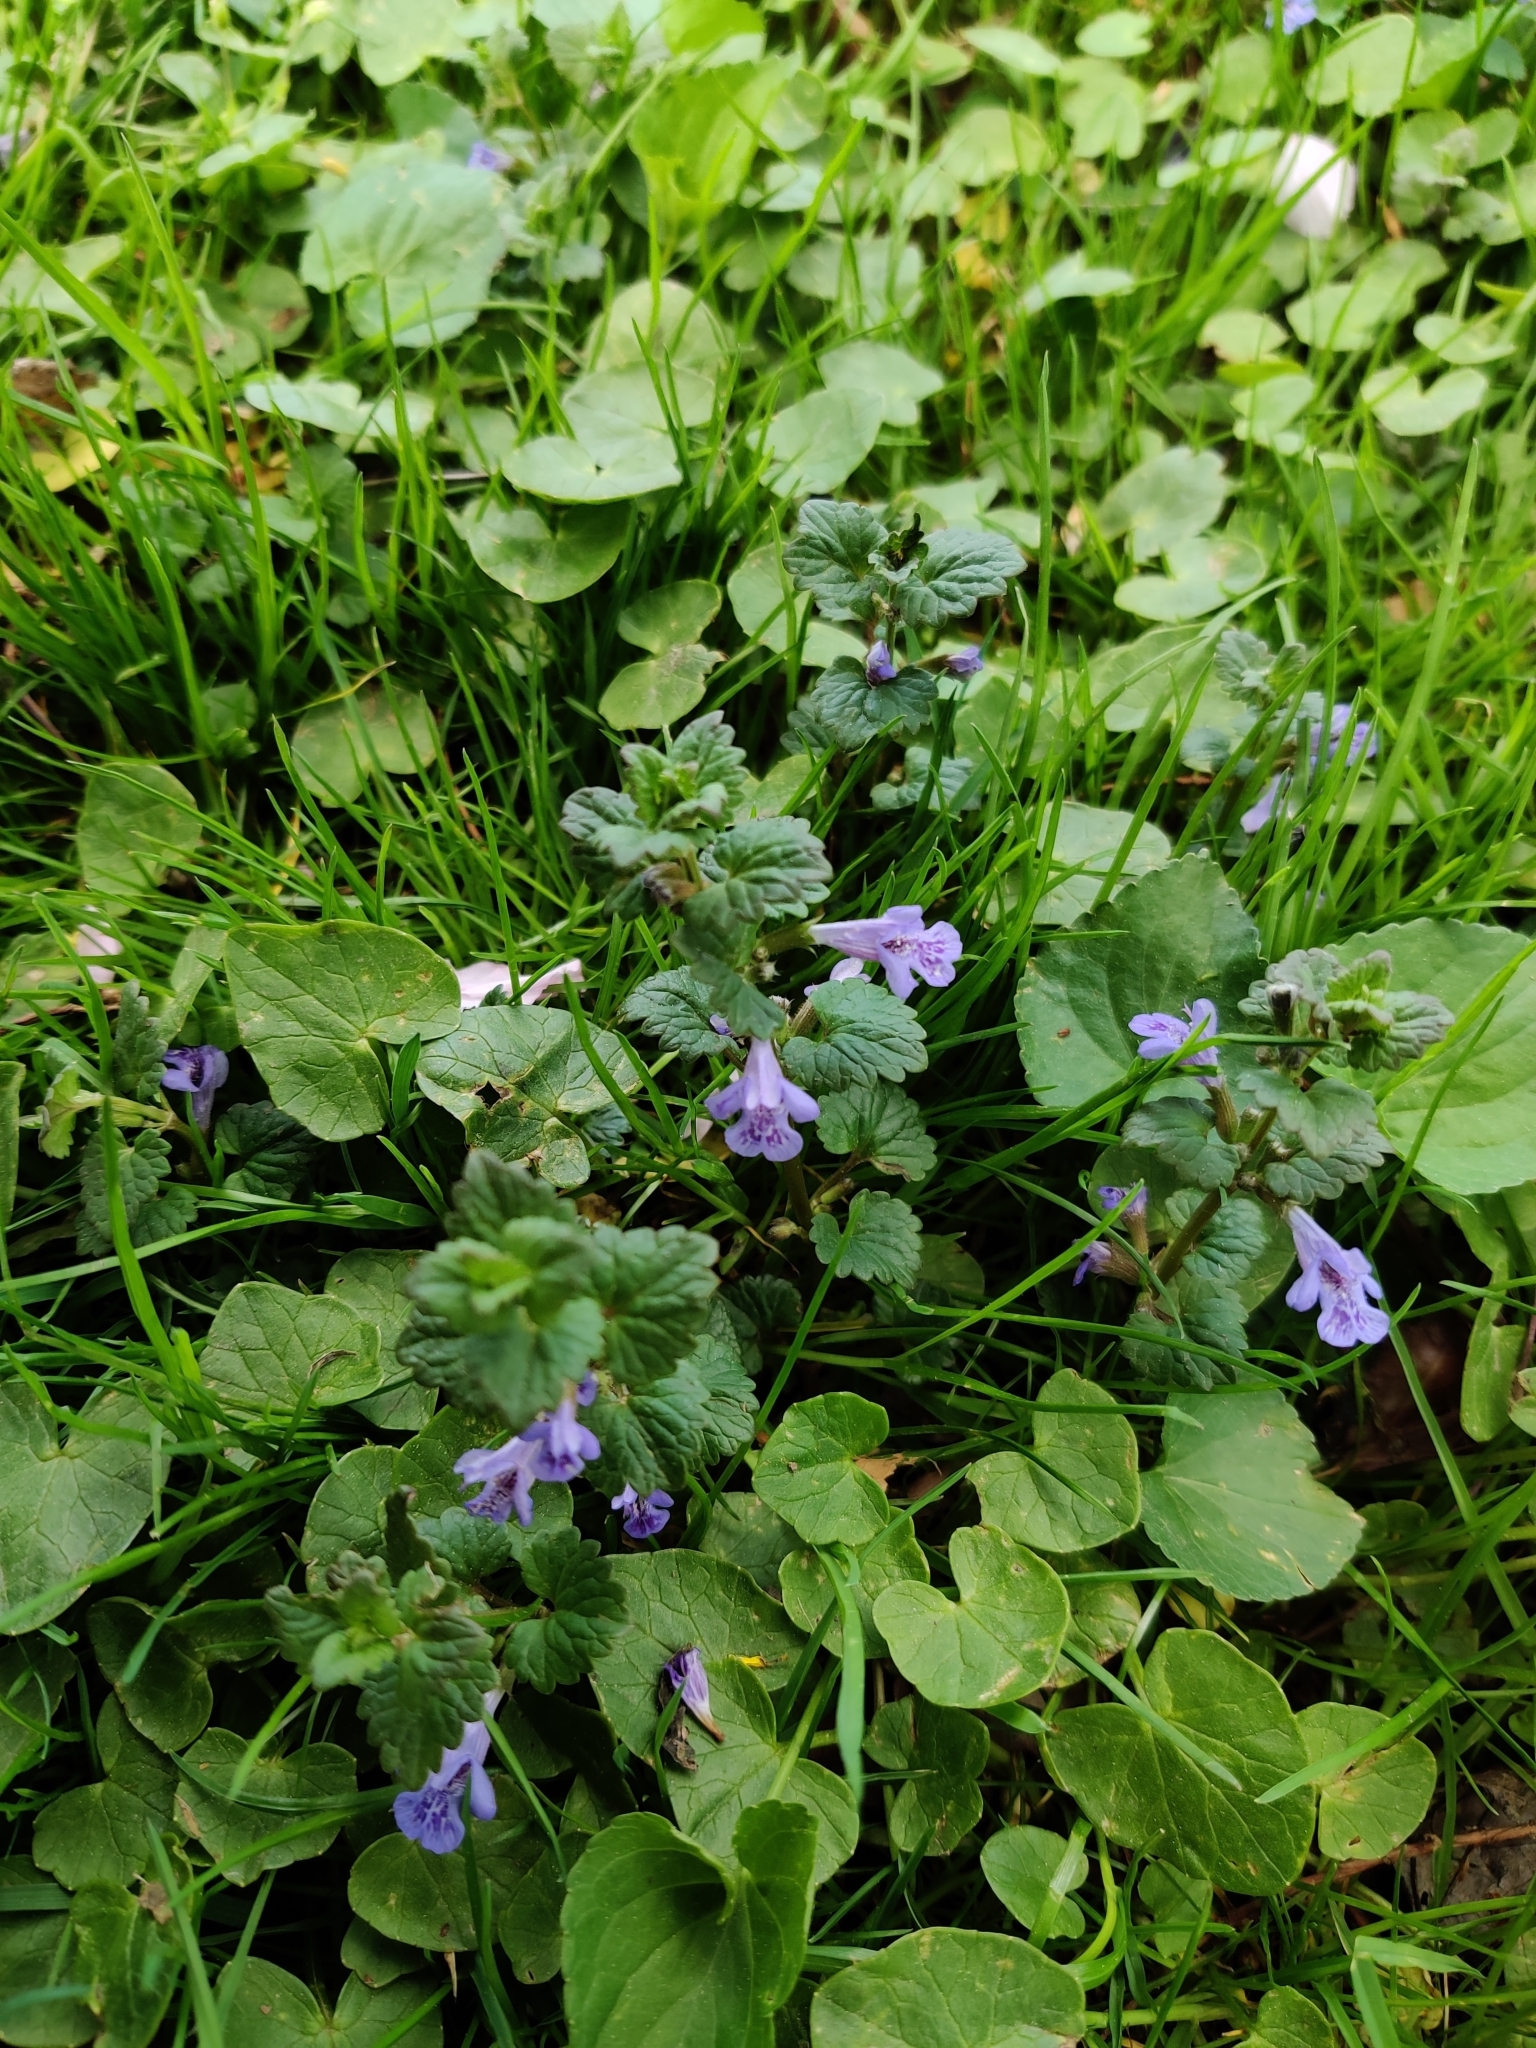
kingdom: Plantae
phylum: Tracheophyta
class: Magnoliopsida
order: Lamiales
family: Lamiaceae
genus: Glechoma
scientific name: Glechoma hederacea
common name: Ground ivy
